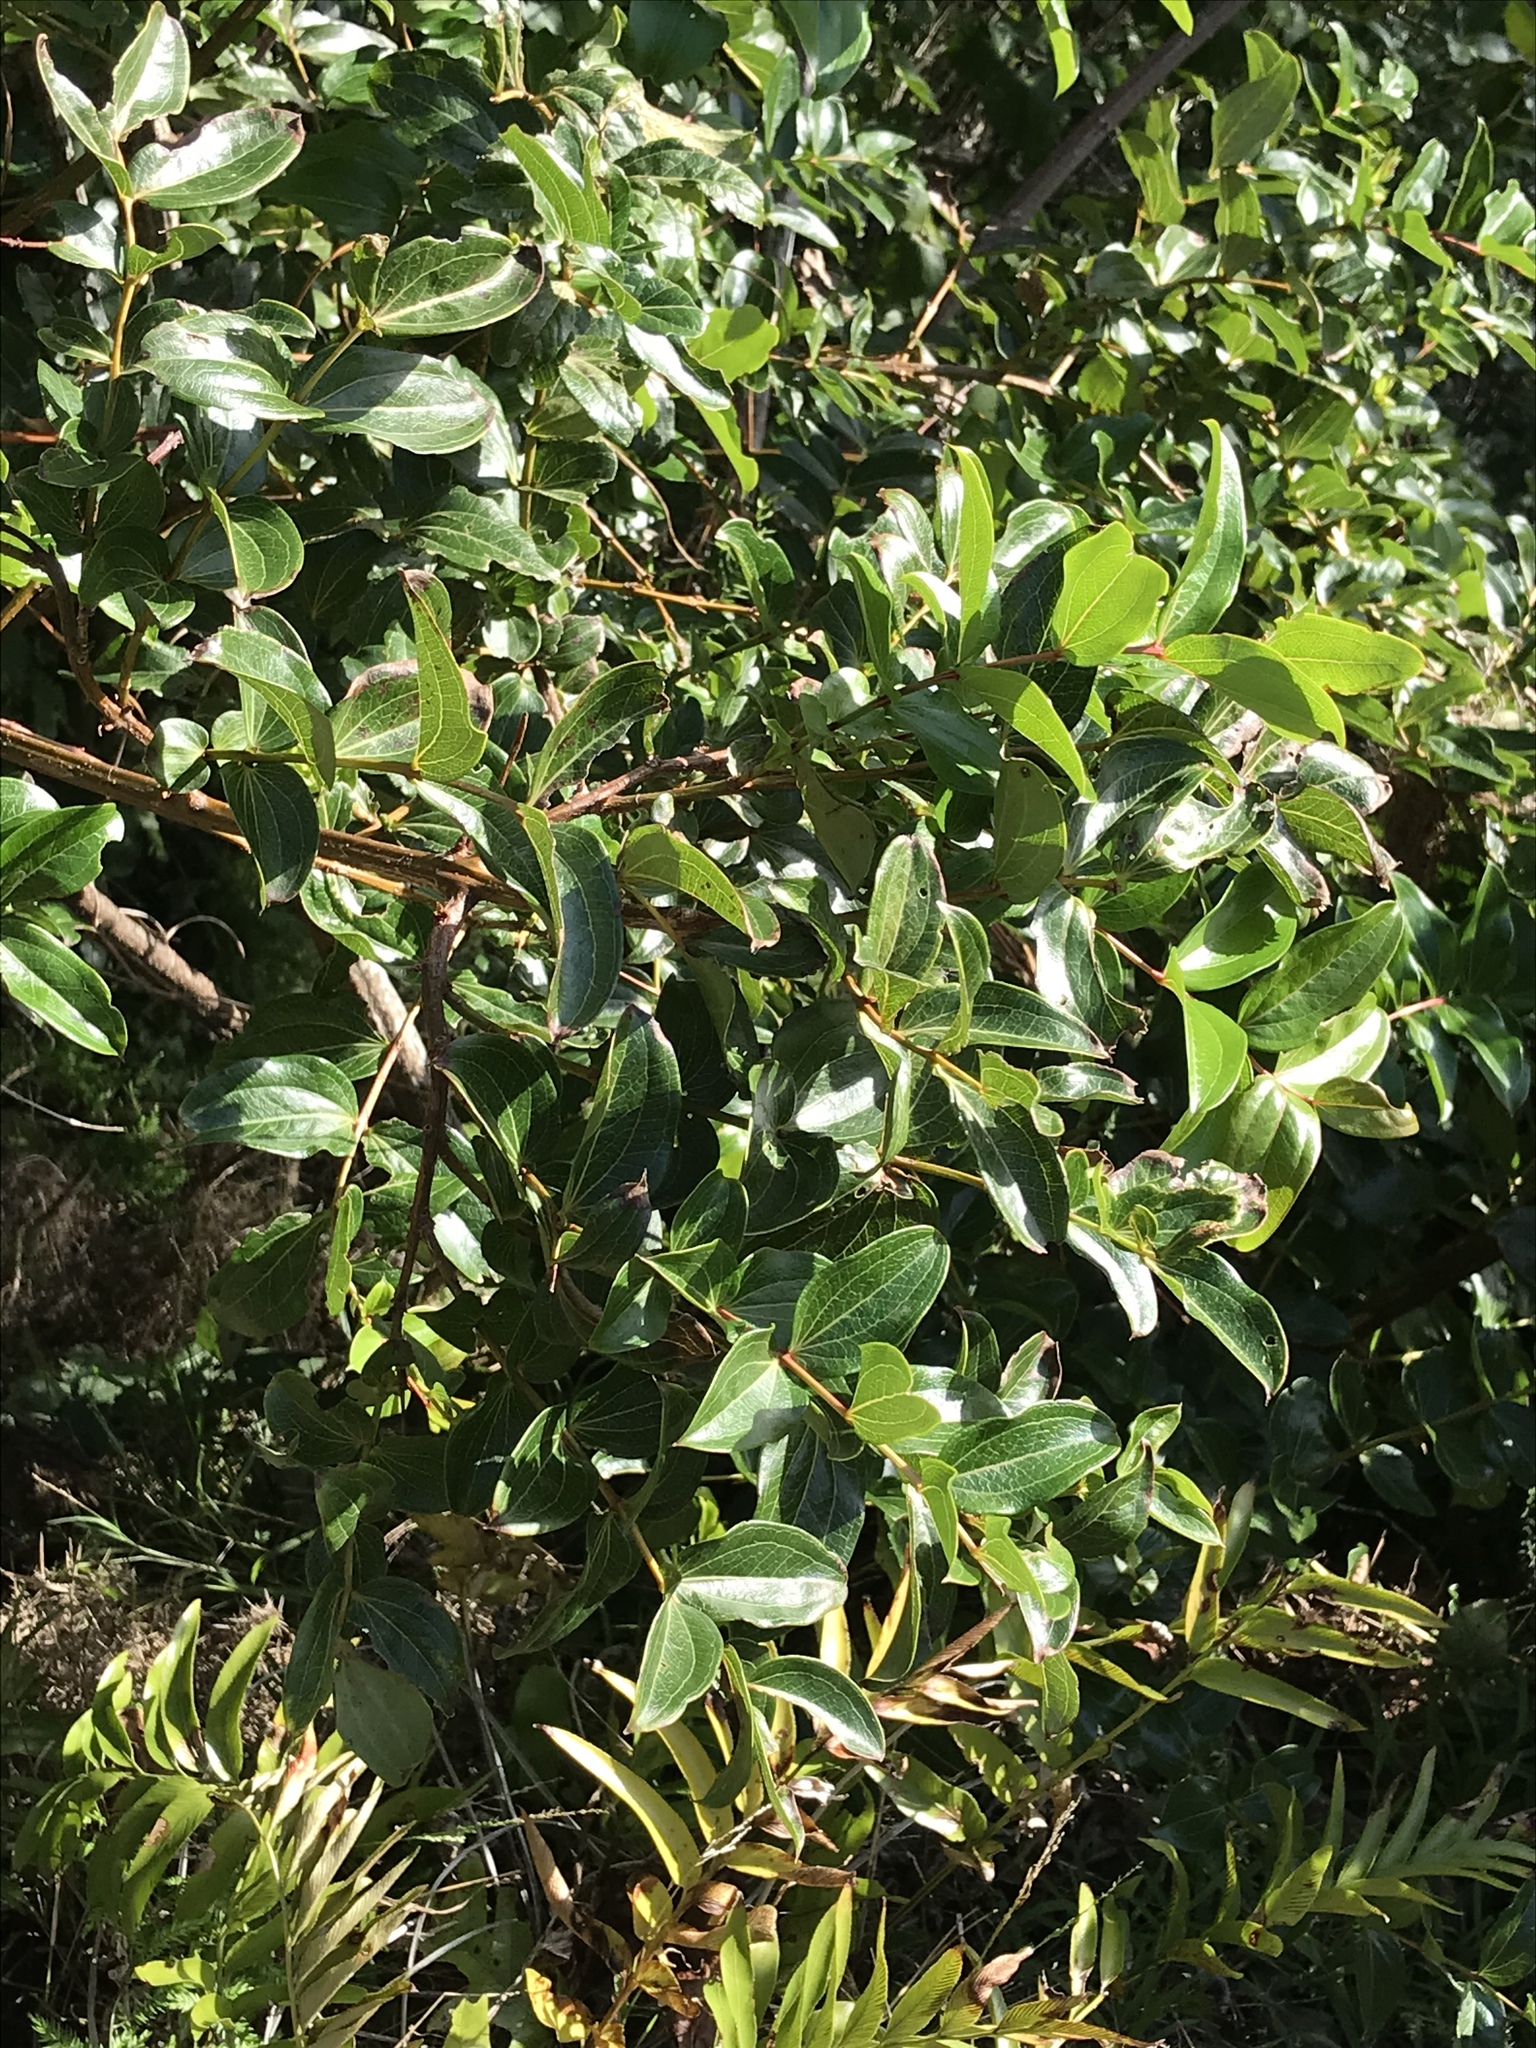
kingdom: Plantae
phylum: Tracheophyta
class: Magnoliopsida
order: Cucurbitales
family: Coriariaceae
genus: Coriaria
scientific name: Coriaria arborea
